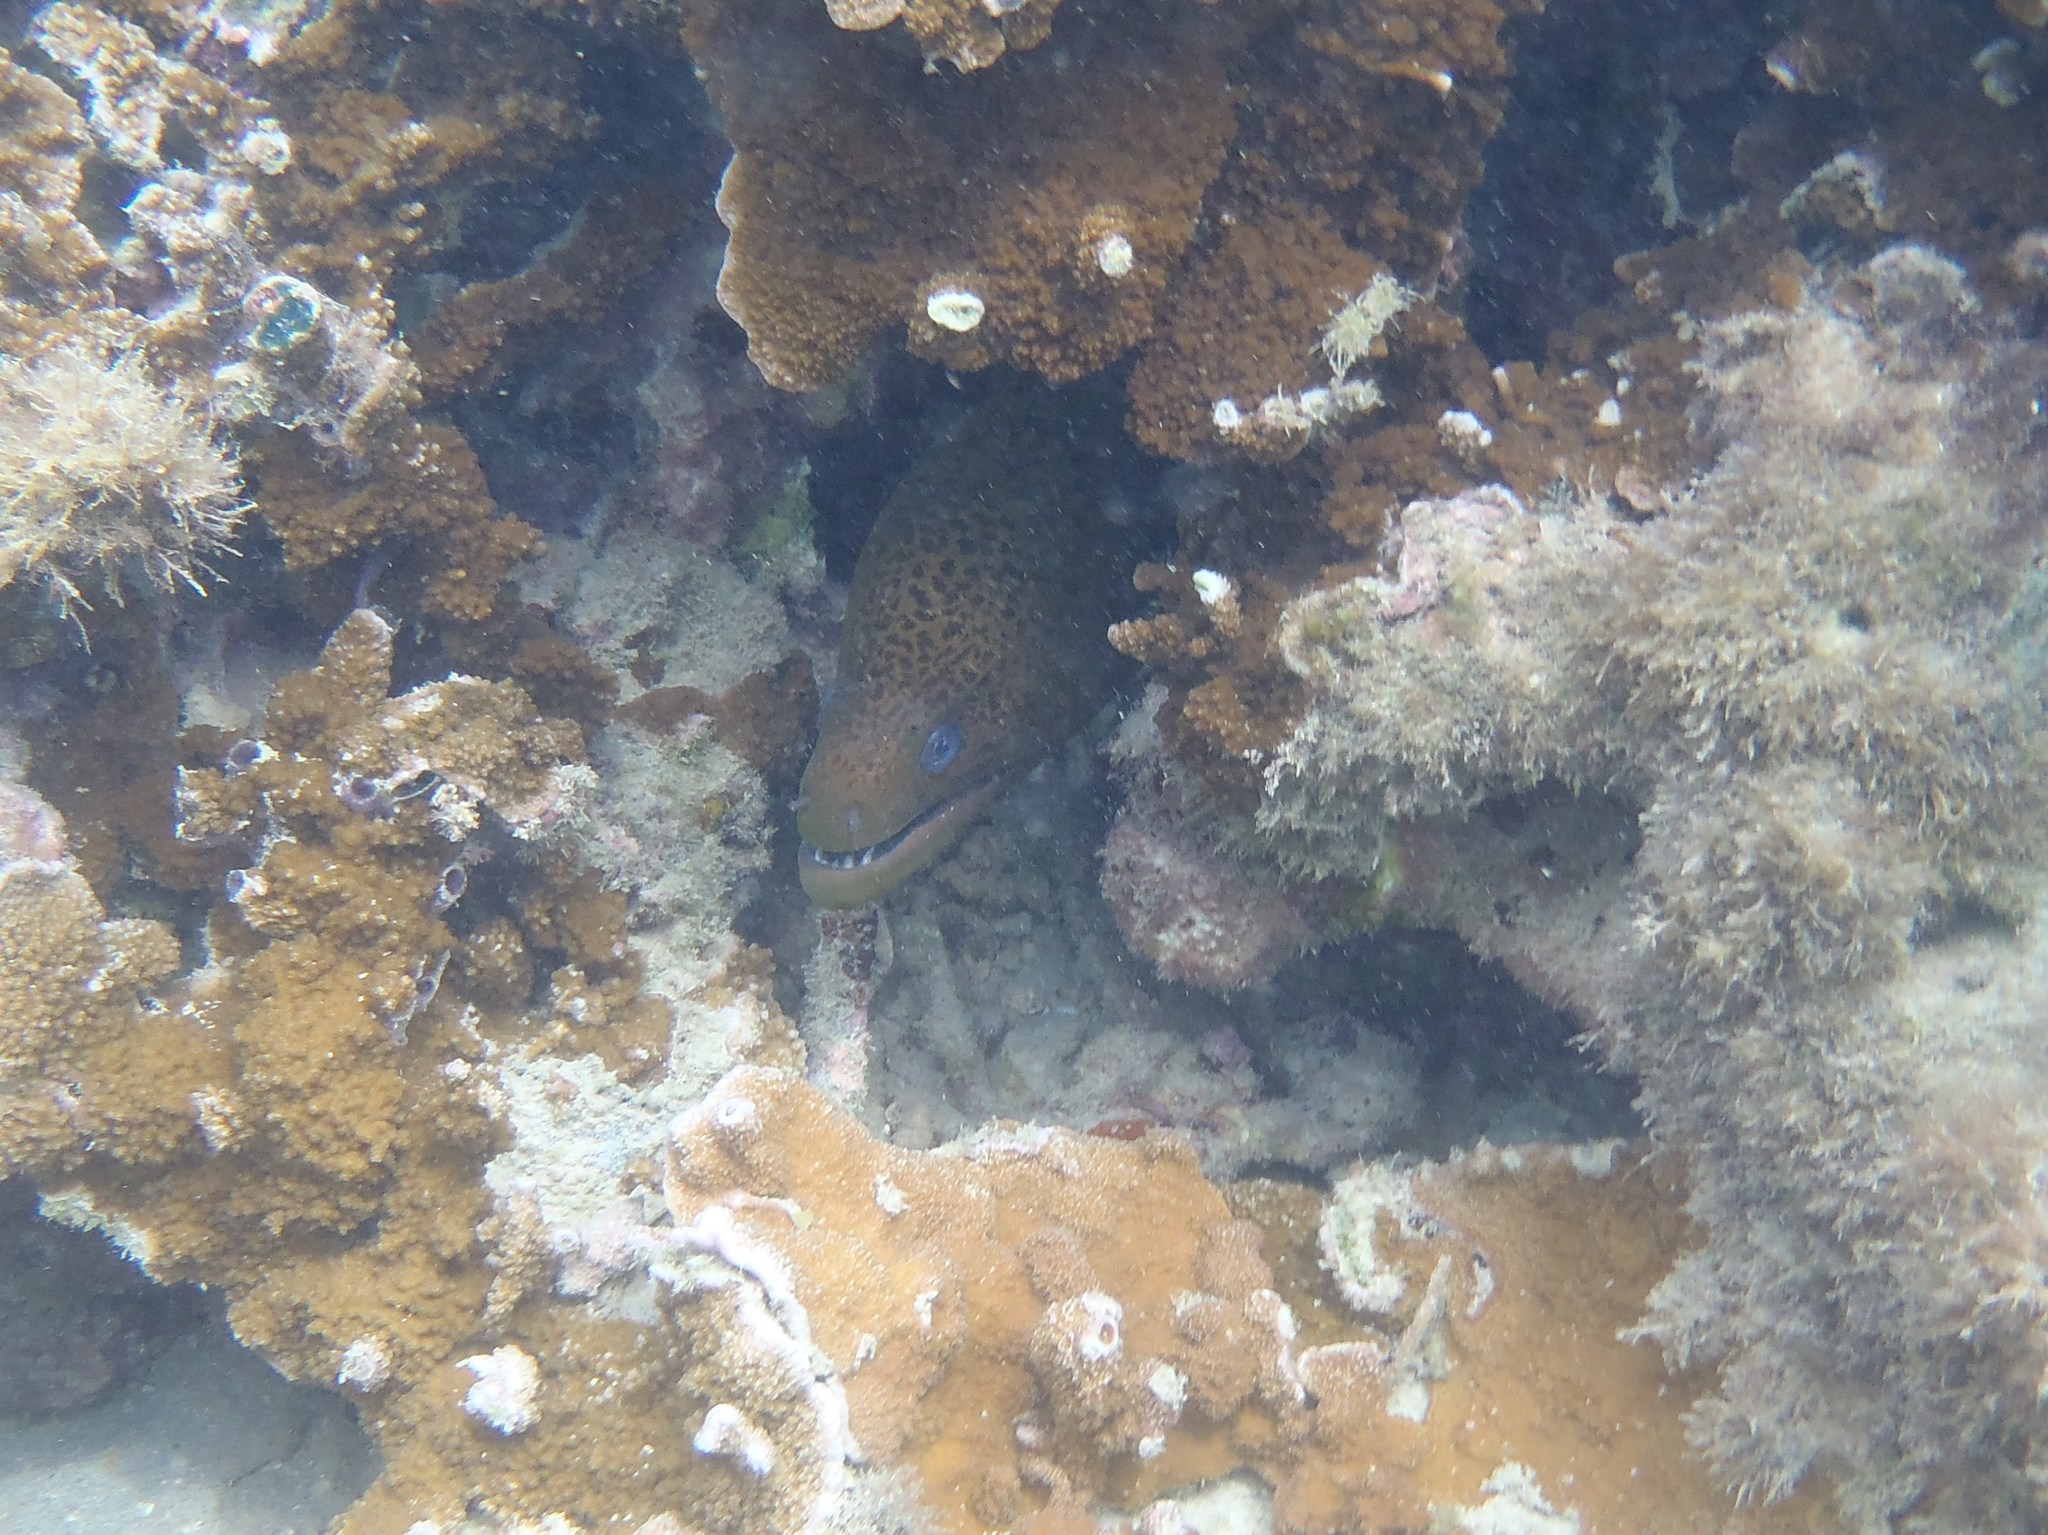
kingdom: Animalia
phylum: Chordata
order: Anguilliformes
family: Muraenidae
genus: Gymnothorax
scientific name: Gymnothorax javanicus
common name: Giant moray
